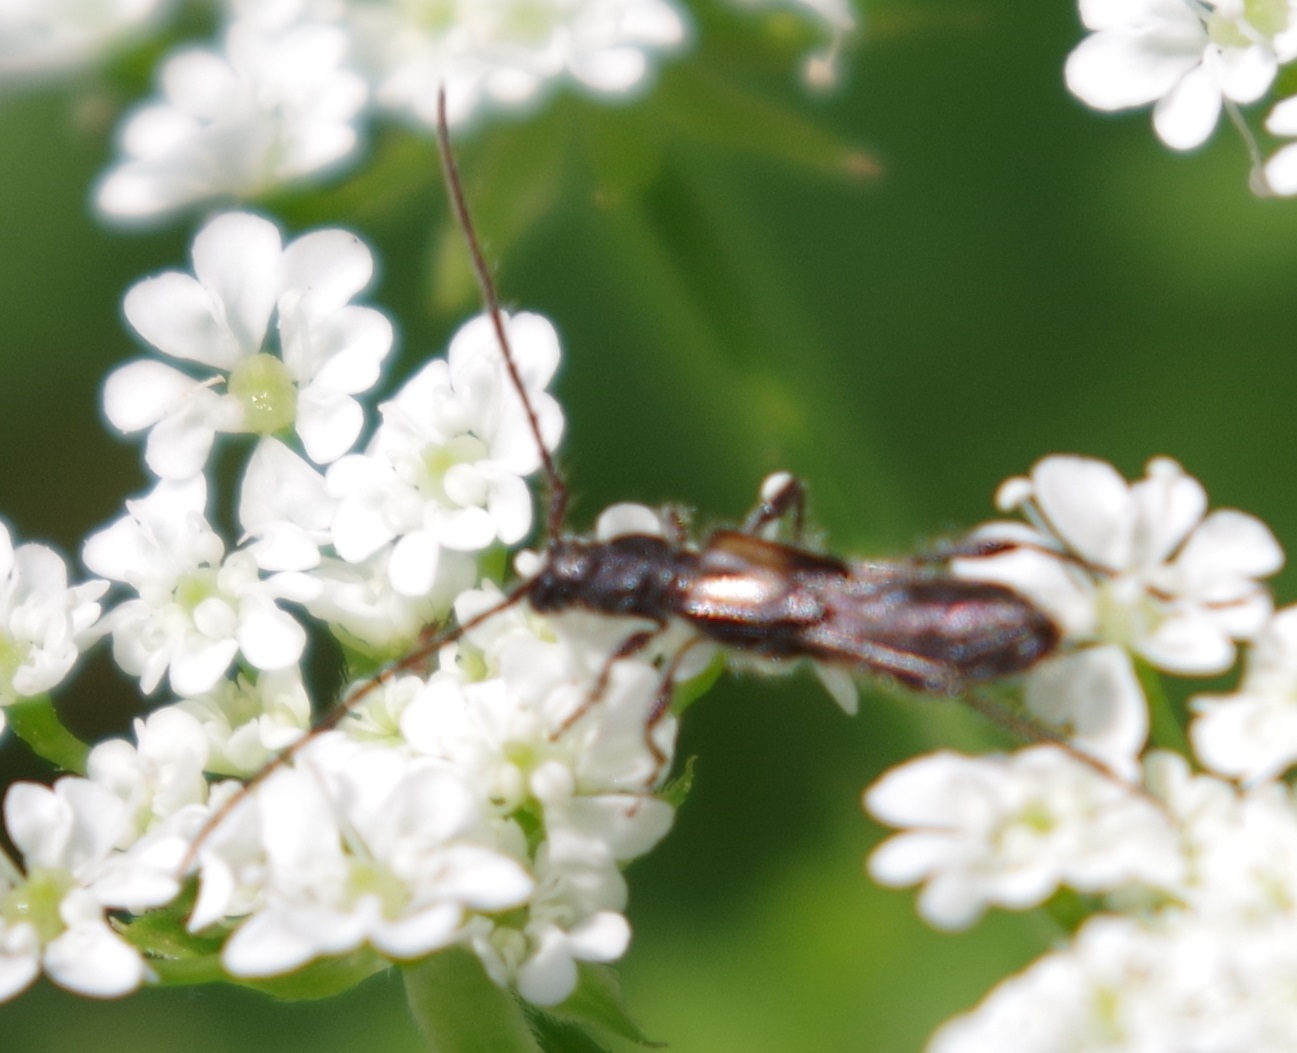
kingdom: Animalia
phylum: Arthropoda
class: Insecta
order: Coleoptera
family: Cerambycidae
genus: Molorchus
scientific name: Molorchus umbellatarum
